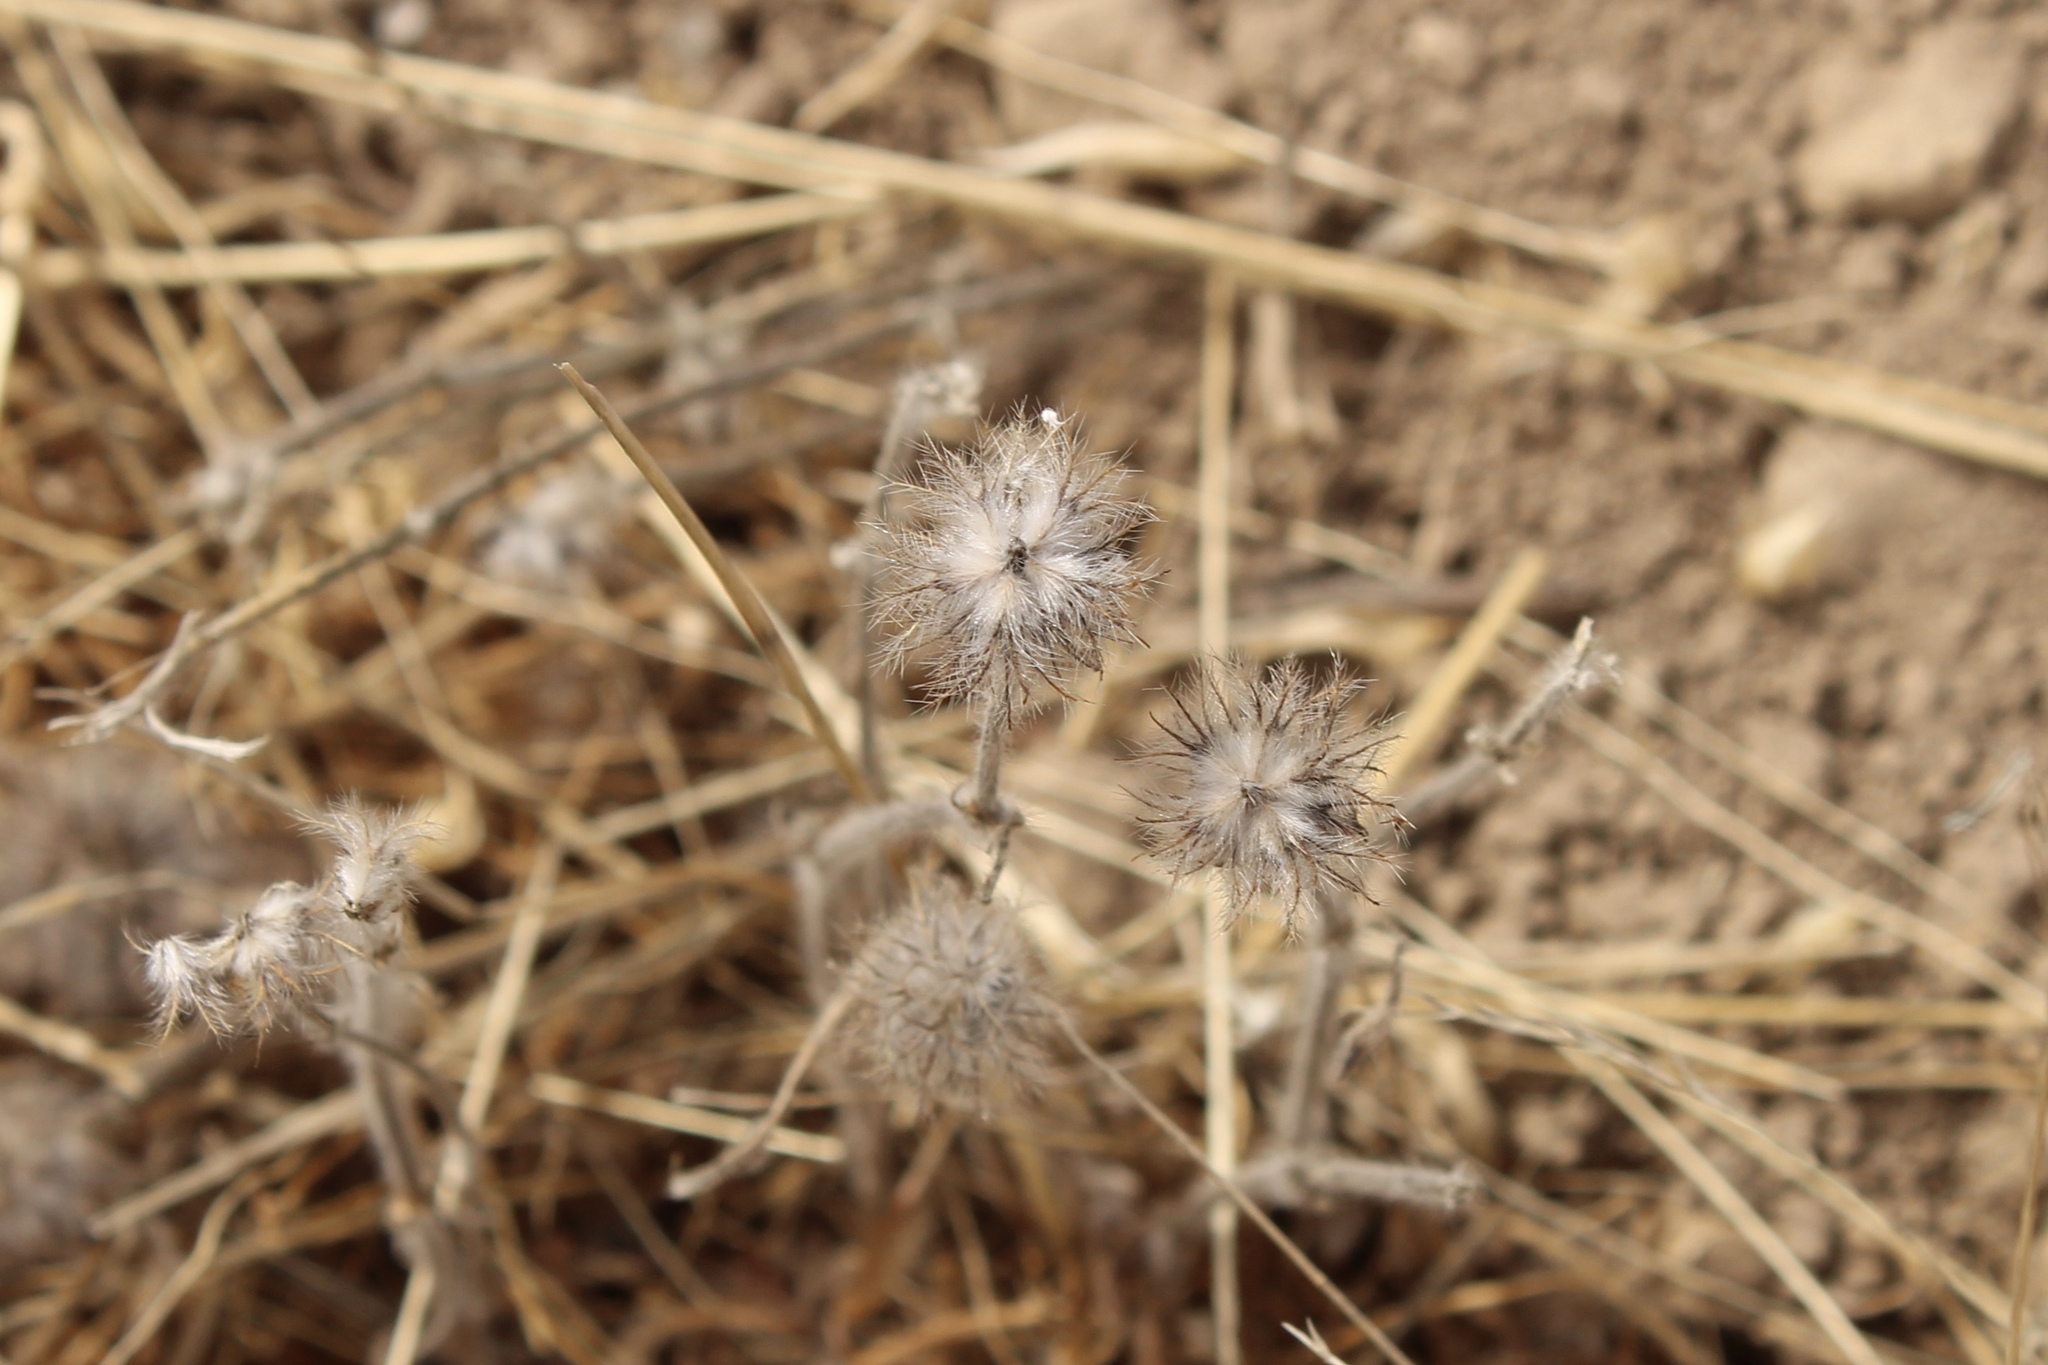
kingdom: Plantae
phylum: Tracheophyta
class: Magnoliopsida
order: Fabales
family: Fabaceae
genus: Trifolium
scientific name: Trifolium hirtum
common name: Rose clover
